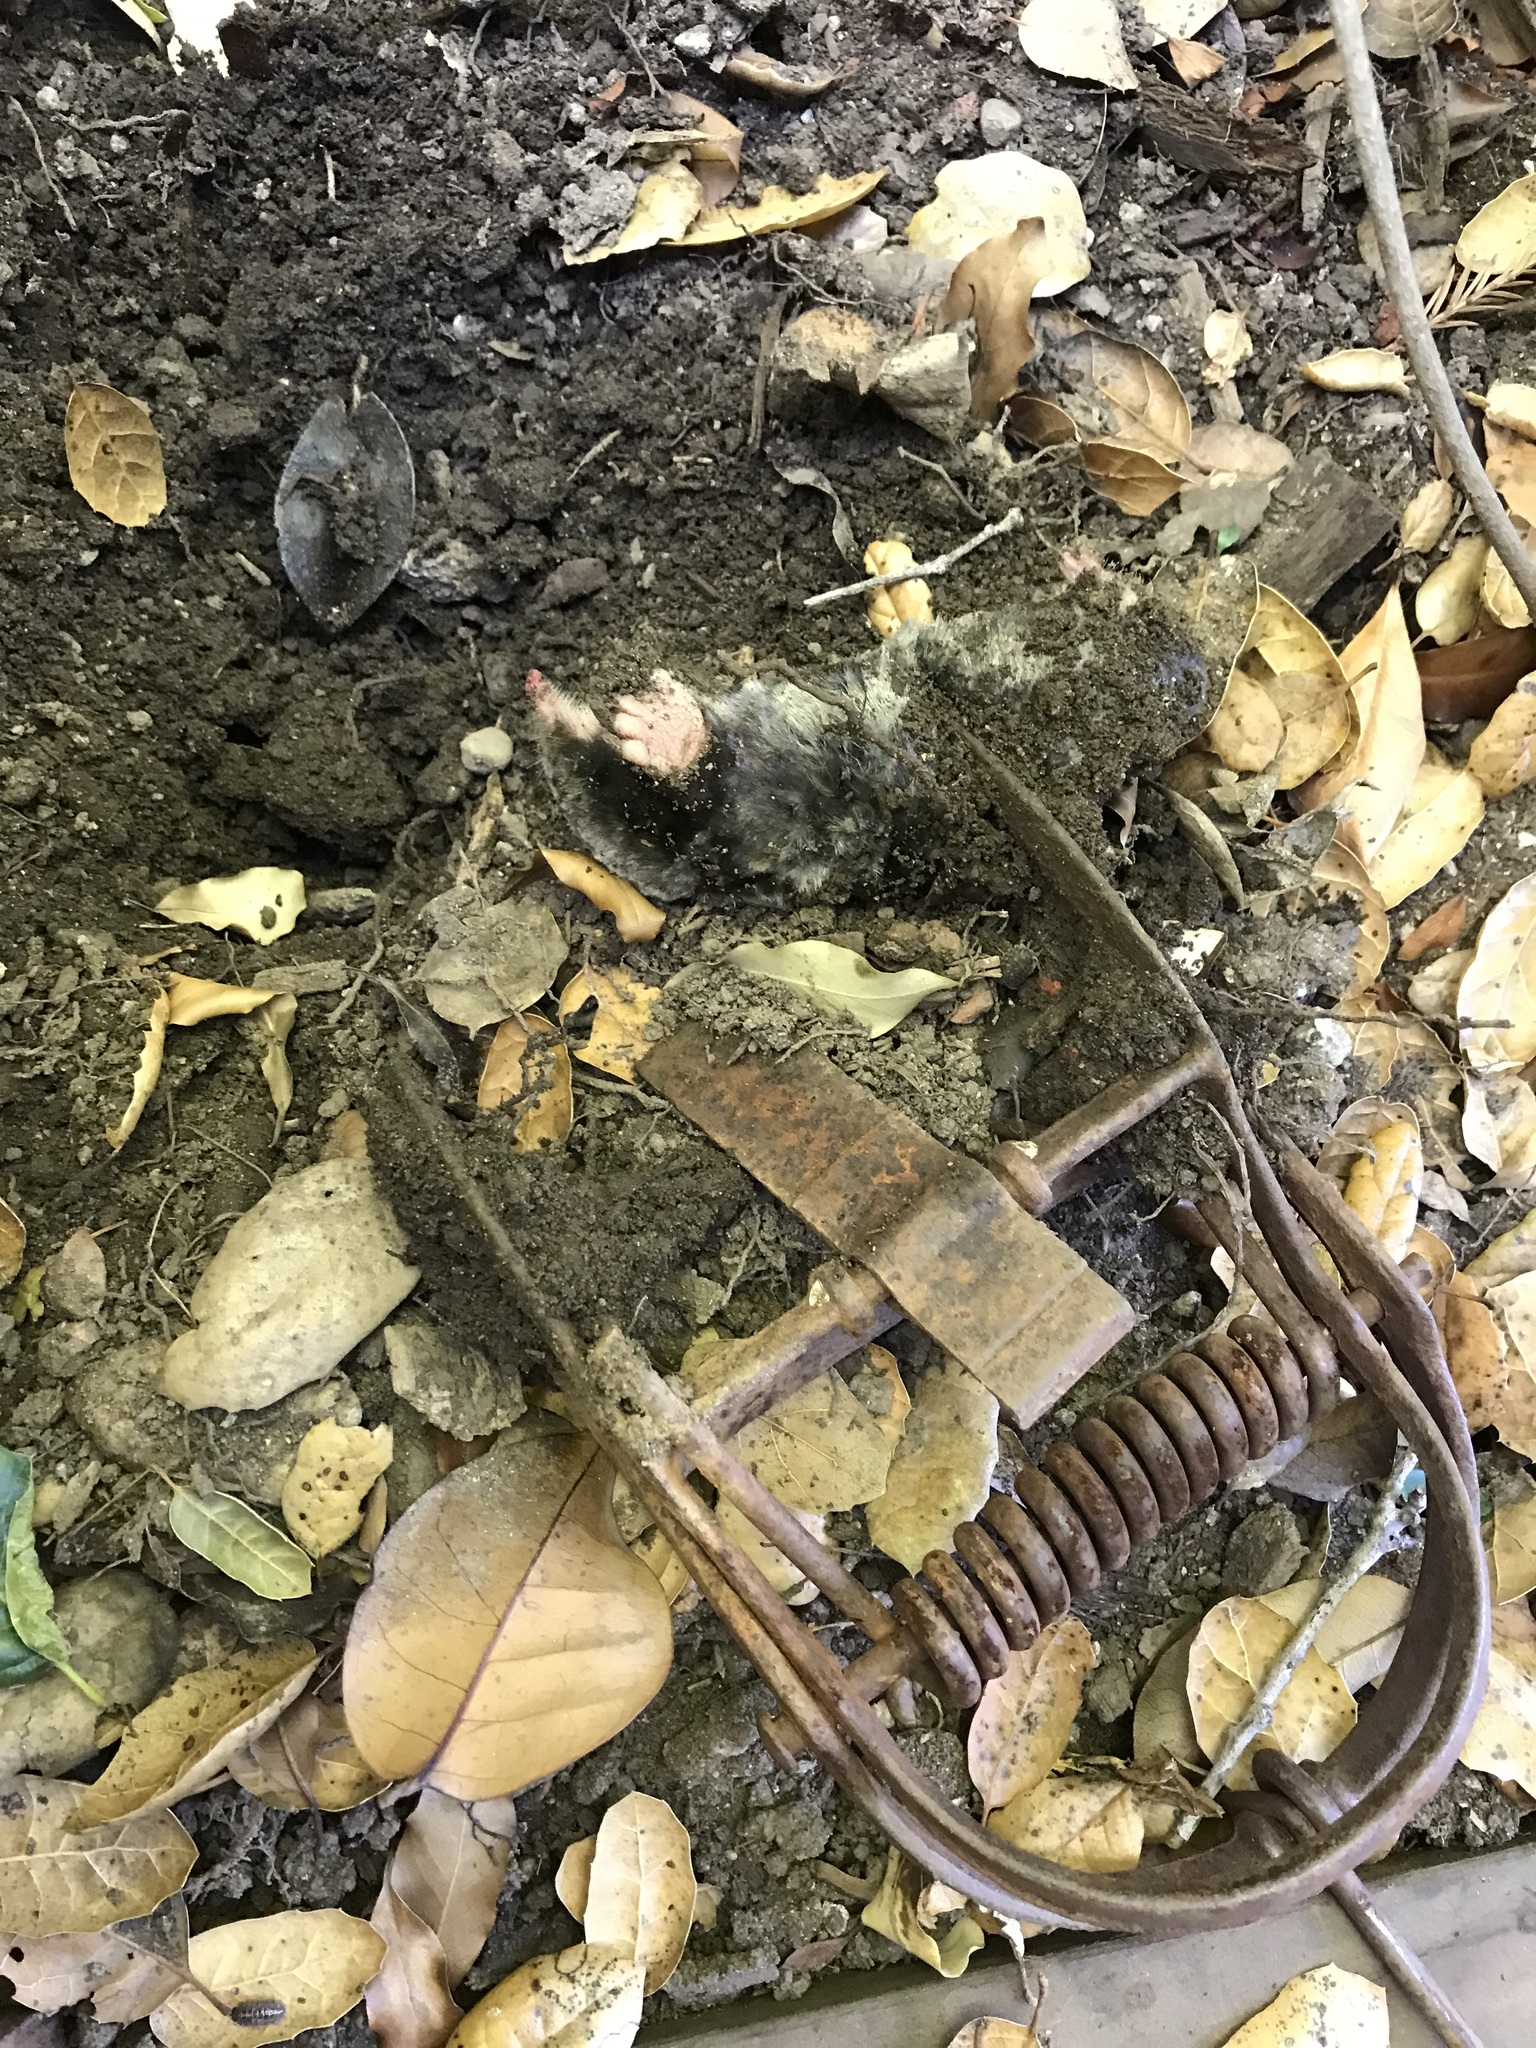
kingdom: Animalia
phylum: Chordata
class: Mammalia
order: Soricomorpha
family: Talpidae
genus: Scapanus
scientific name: Scapanus latimanus
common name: Broad-footed mole
